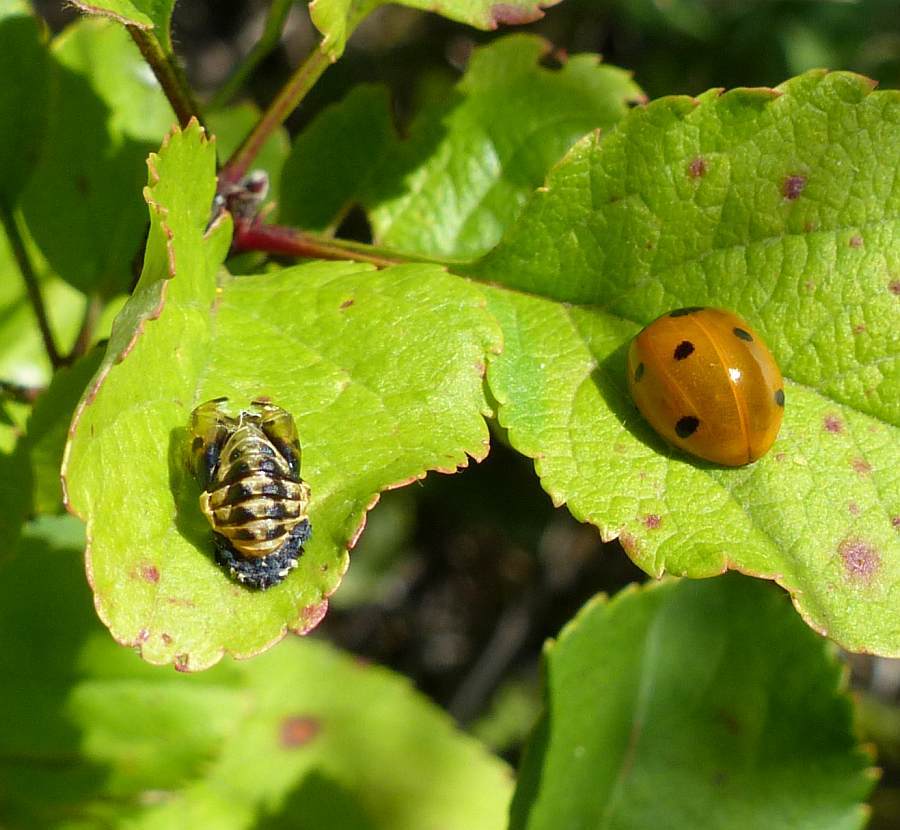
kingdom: Animalia
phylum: Arthropoda
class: Insecta
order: Coleoptera
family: Coccinellidae
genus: Coccinella
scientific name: Coccinella septempunctata
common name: Sevenspotted lady beetle
